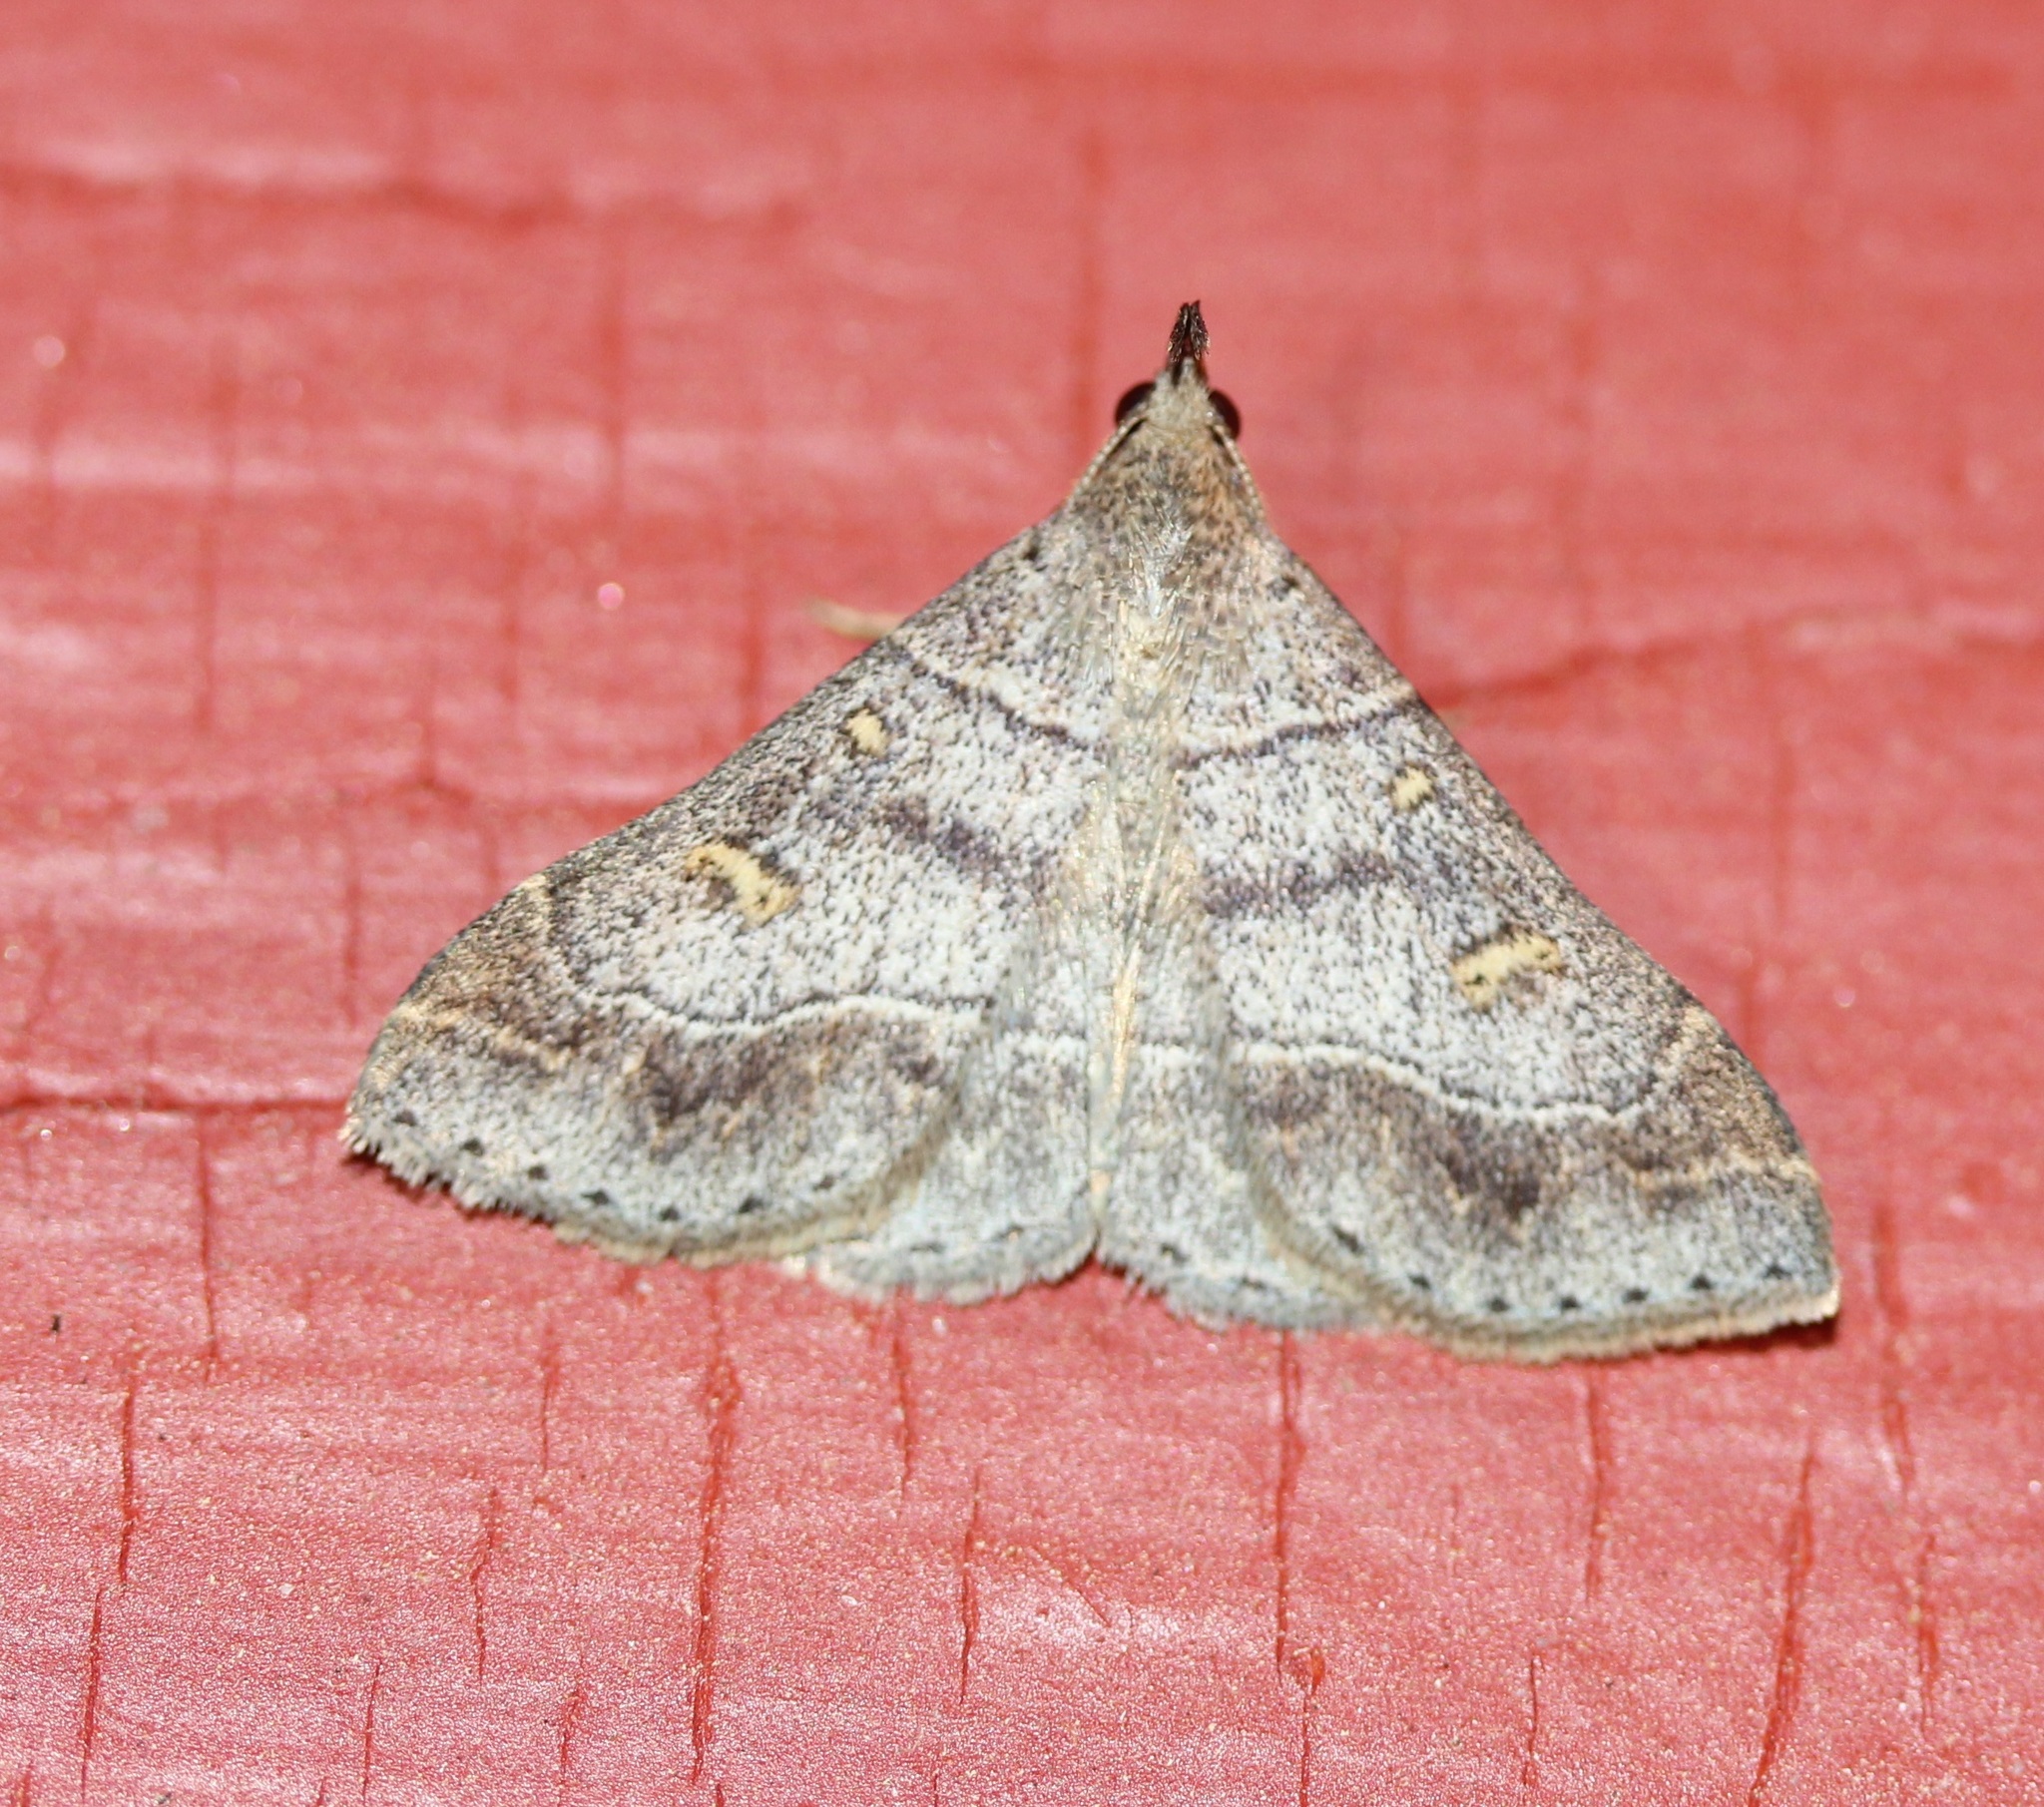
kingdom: Animalia
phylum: Arthropoda
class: Insecta
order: Lepidoptera
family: Erebidae
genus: Renia
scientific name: Renia flavipunctalis
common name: Yellow-spotted renia moth
